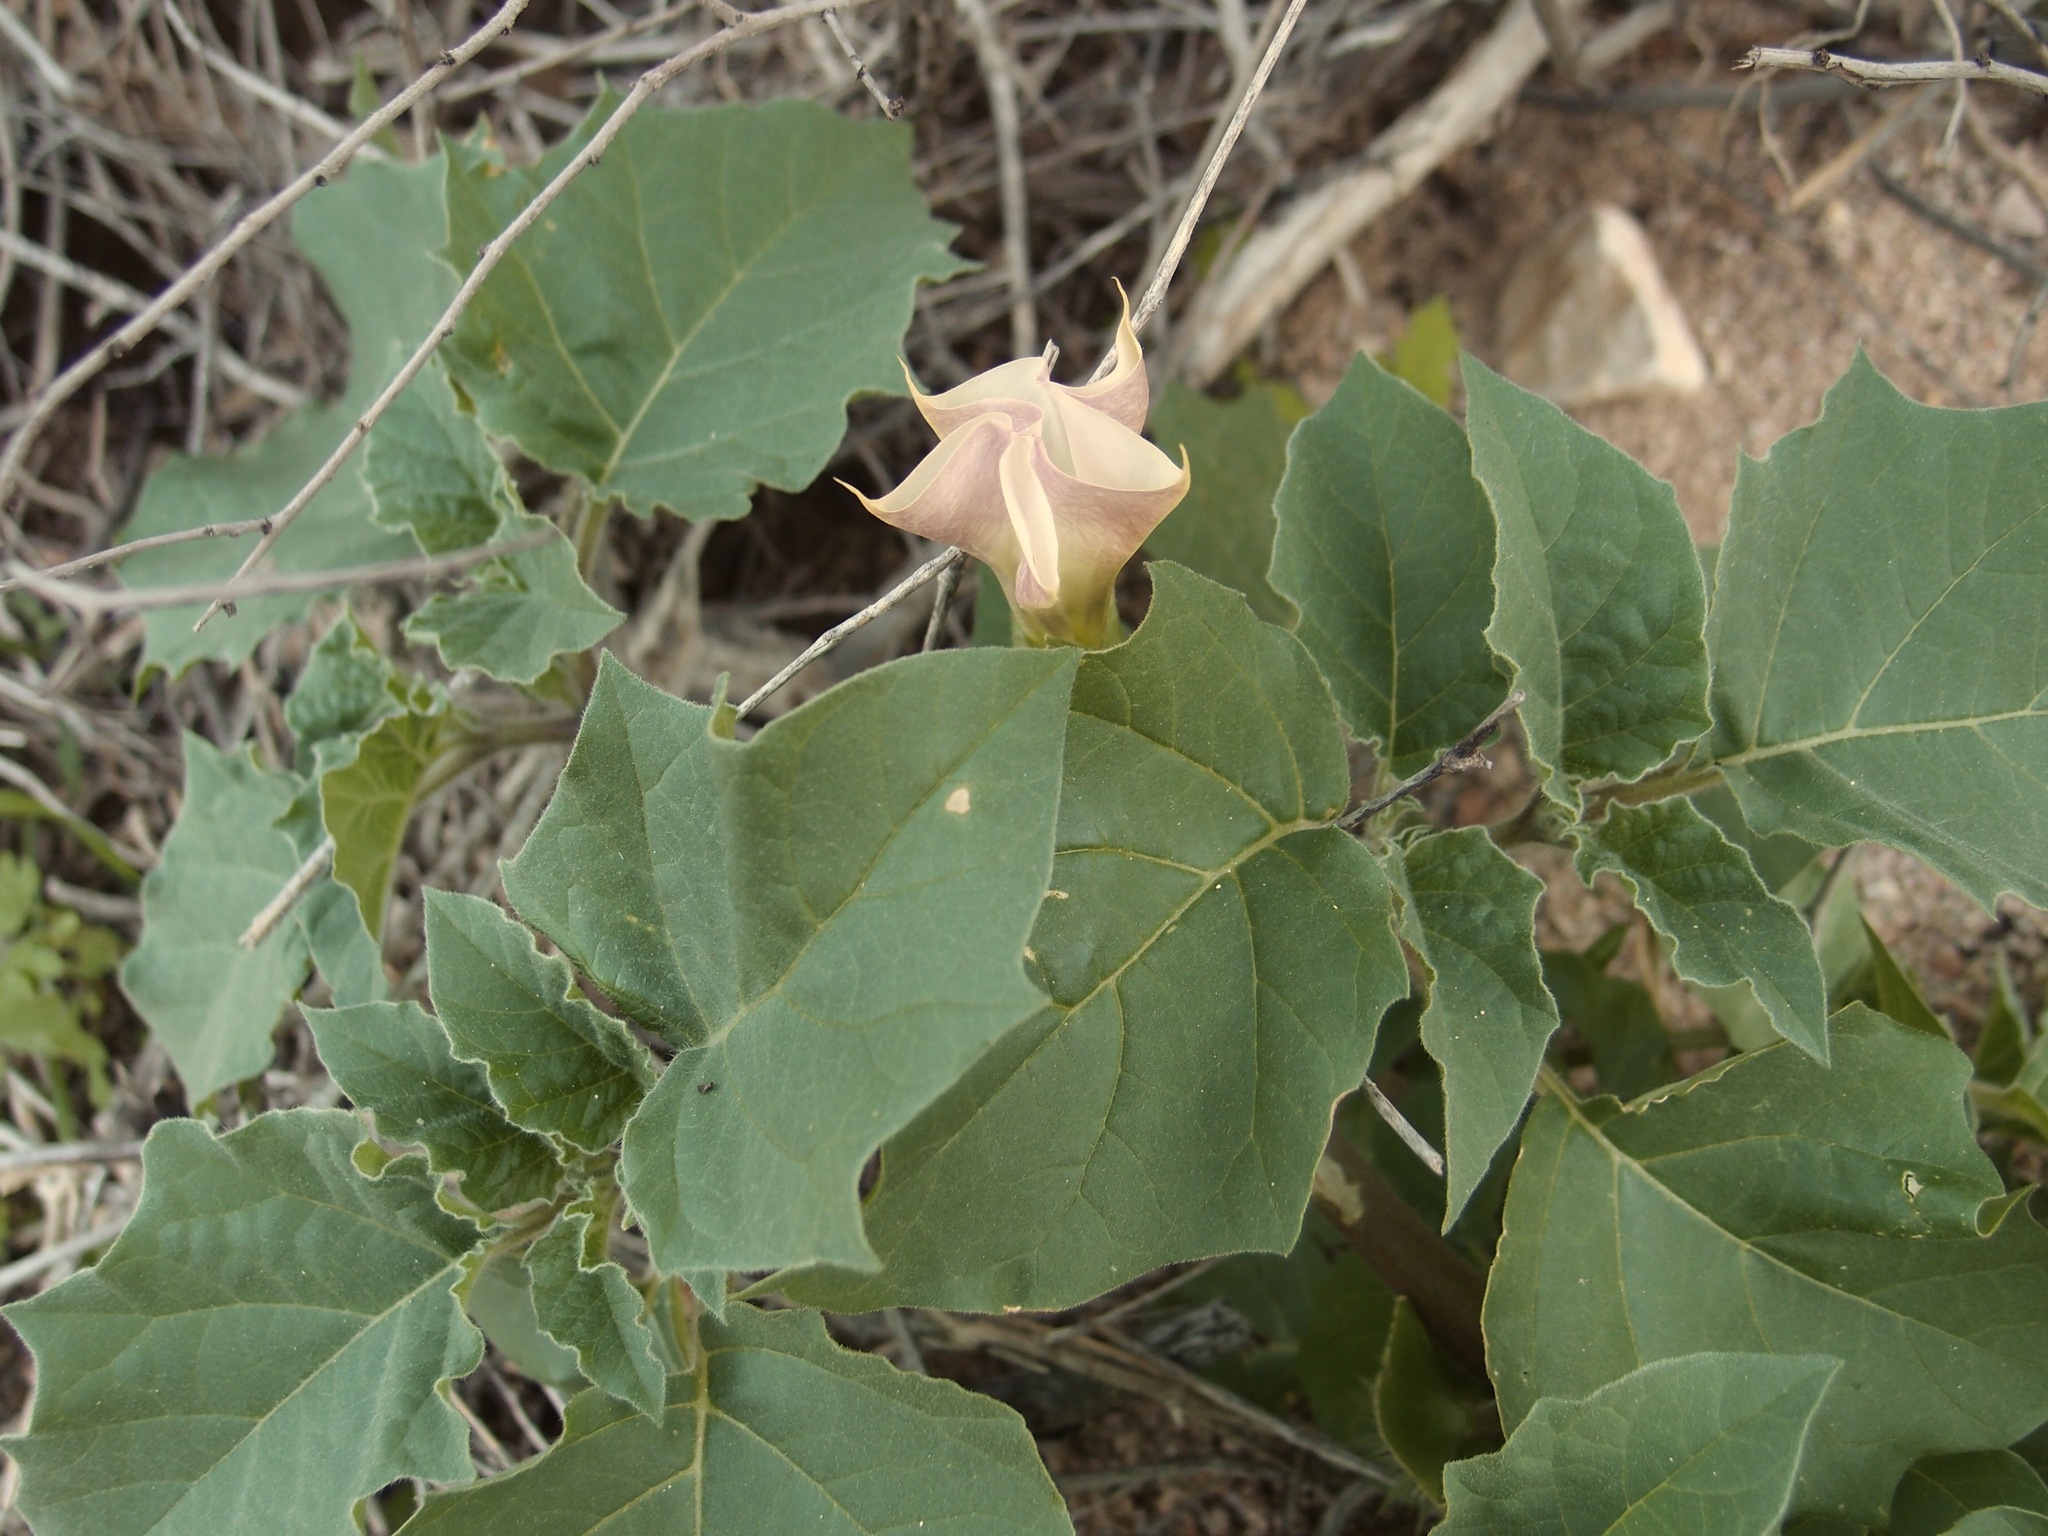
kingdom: Plantae
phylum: Tracheophyta
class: Magnoliopsida
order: Solanales
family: Solanaceae
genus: Datura
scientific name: Datura discolor
